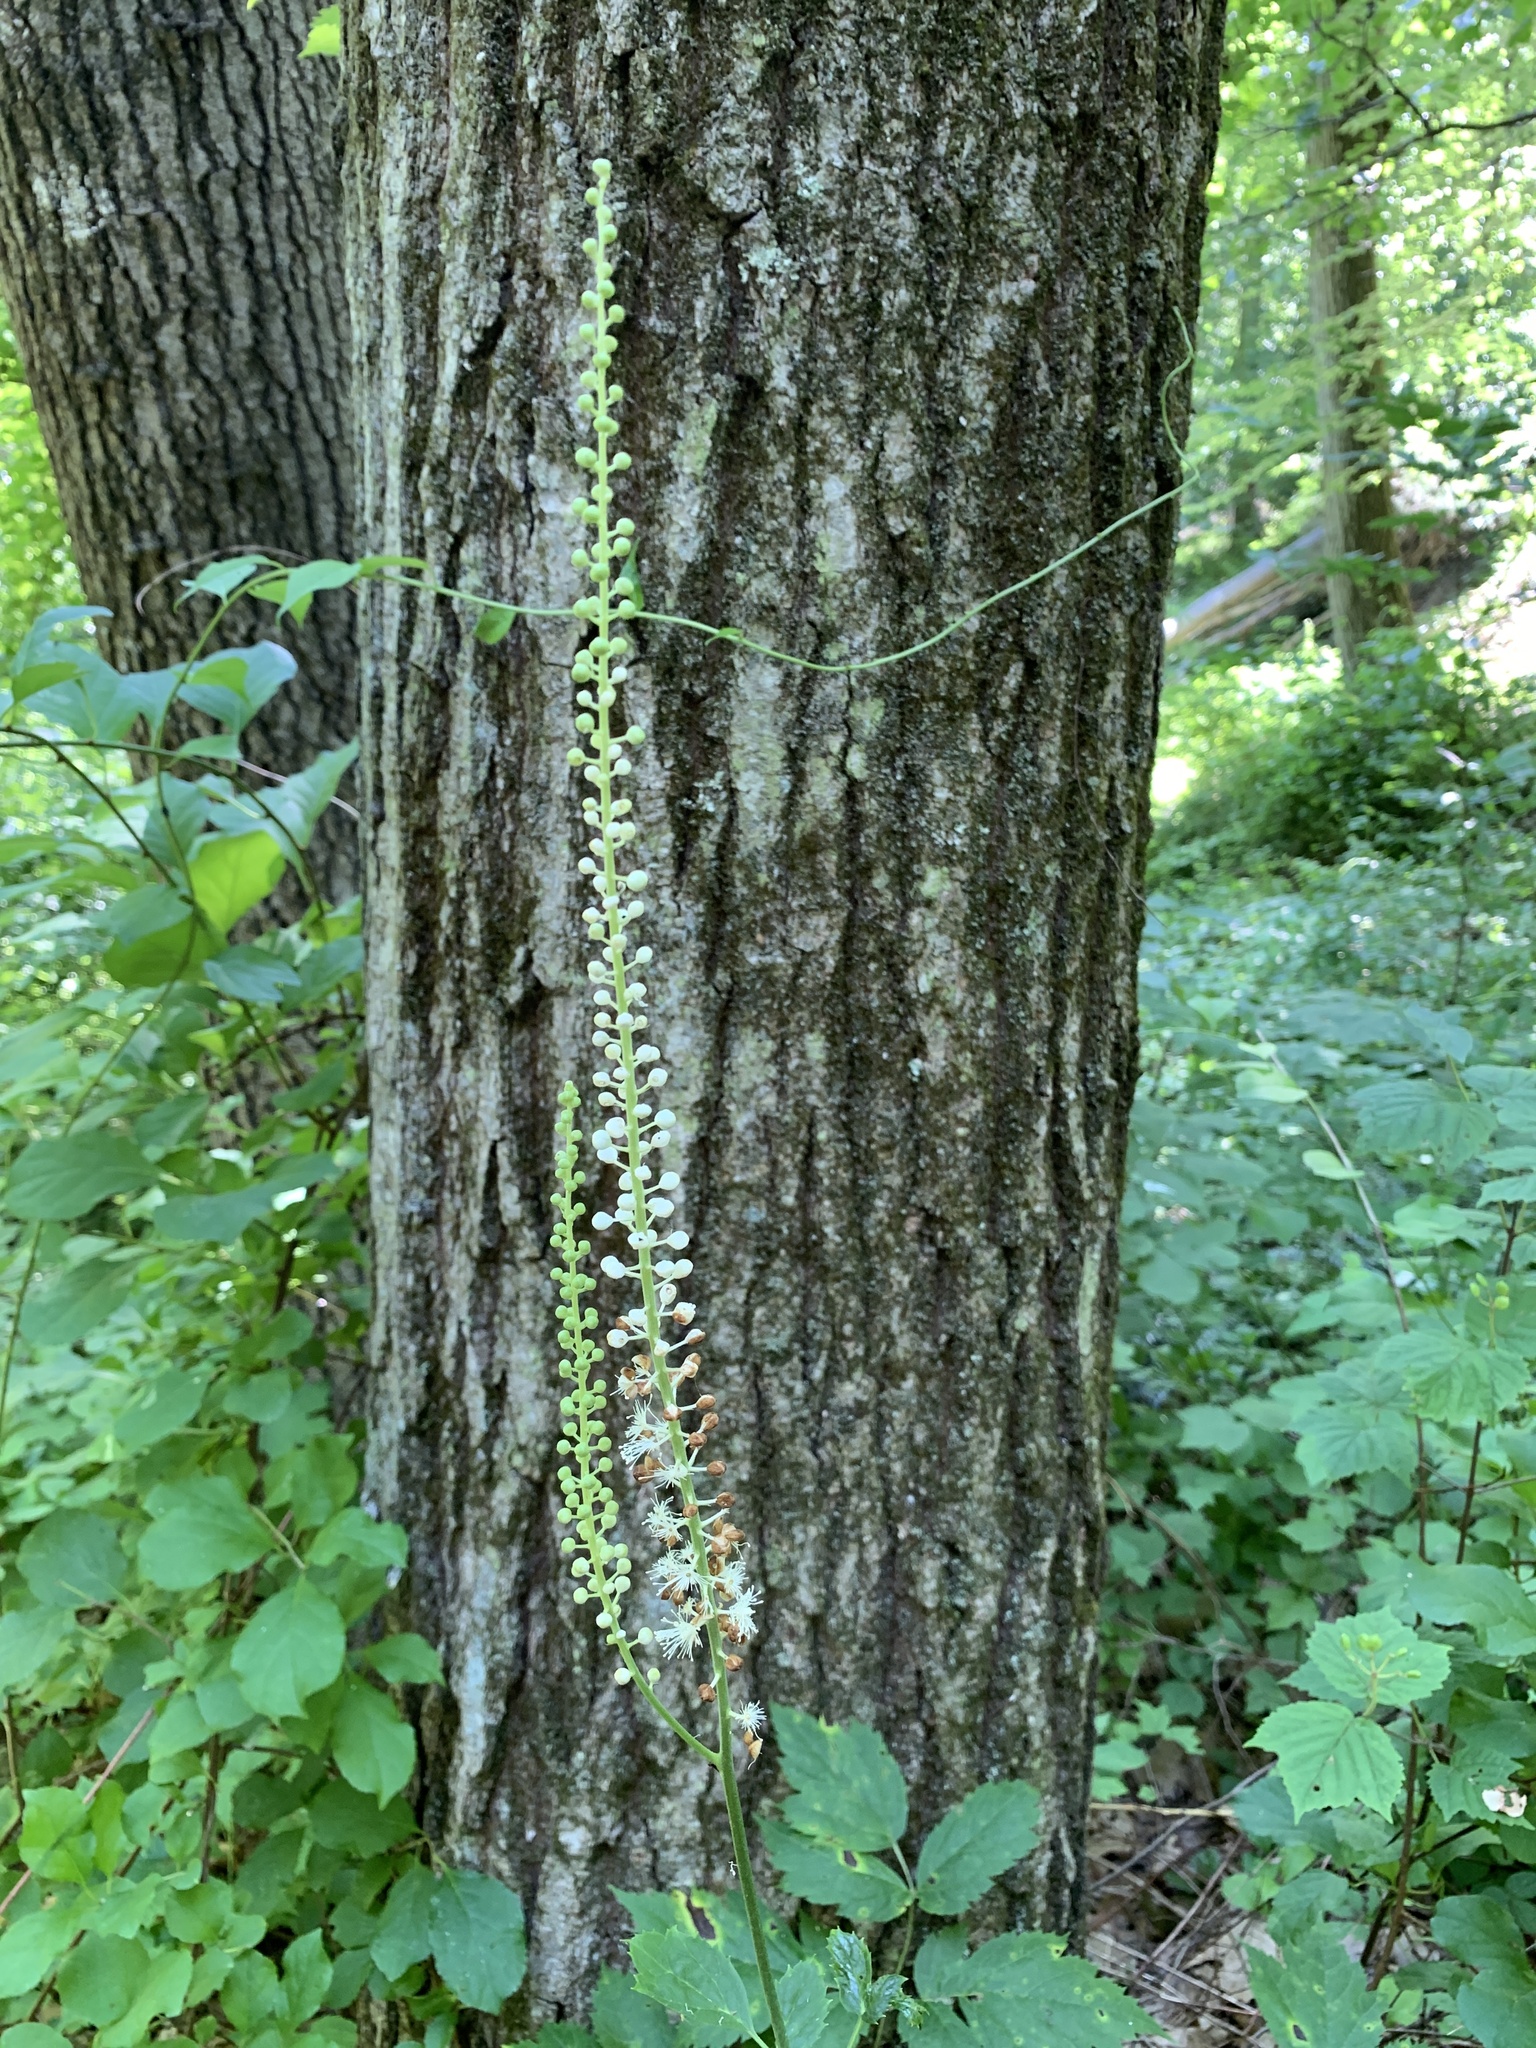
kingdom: Plantae
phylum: Tracheophyta
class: Magnoliopsida
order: Ranunculales
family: Ranunculaceae
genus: Actaea
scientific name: Actaea racemosa
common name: Black cohosh
